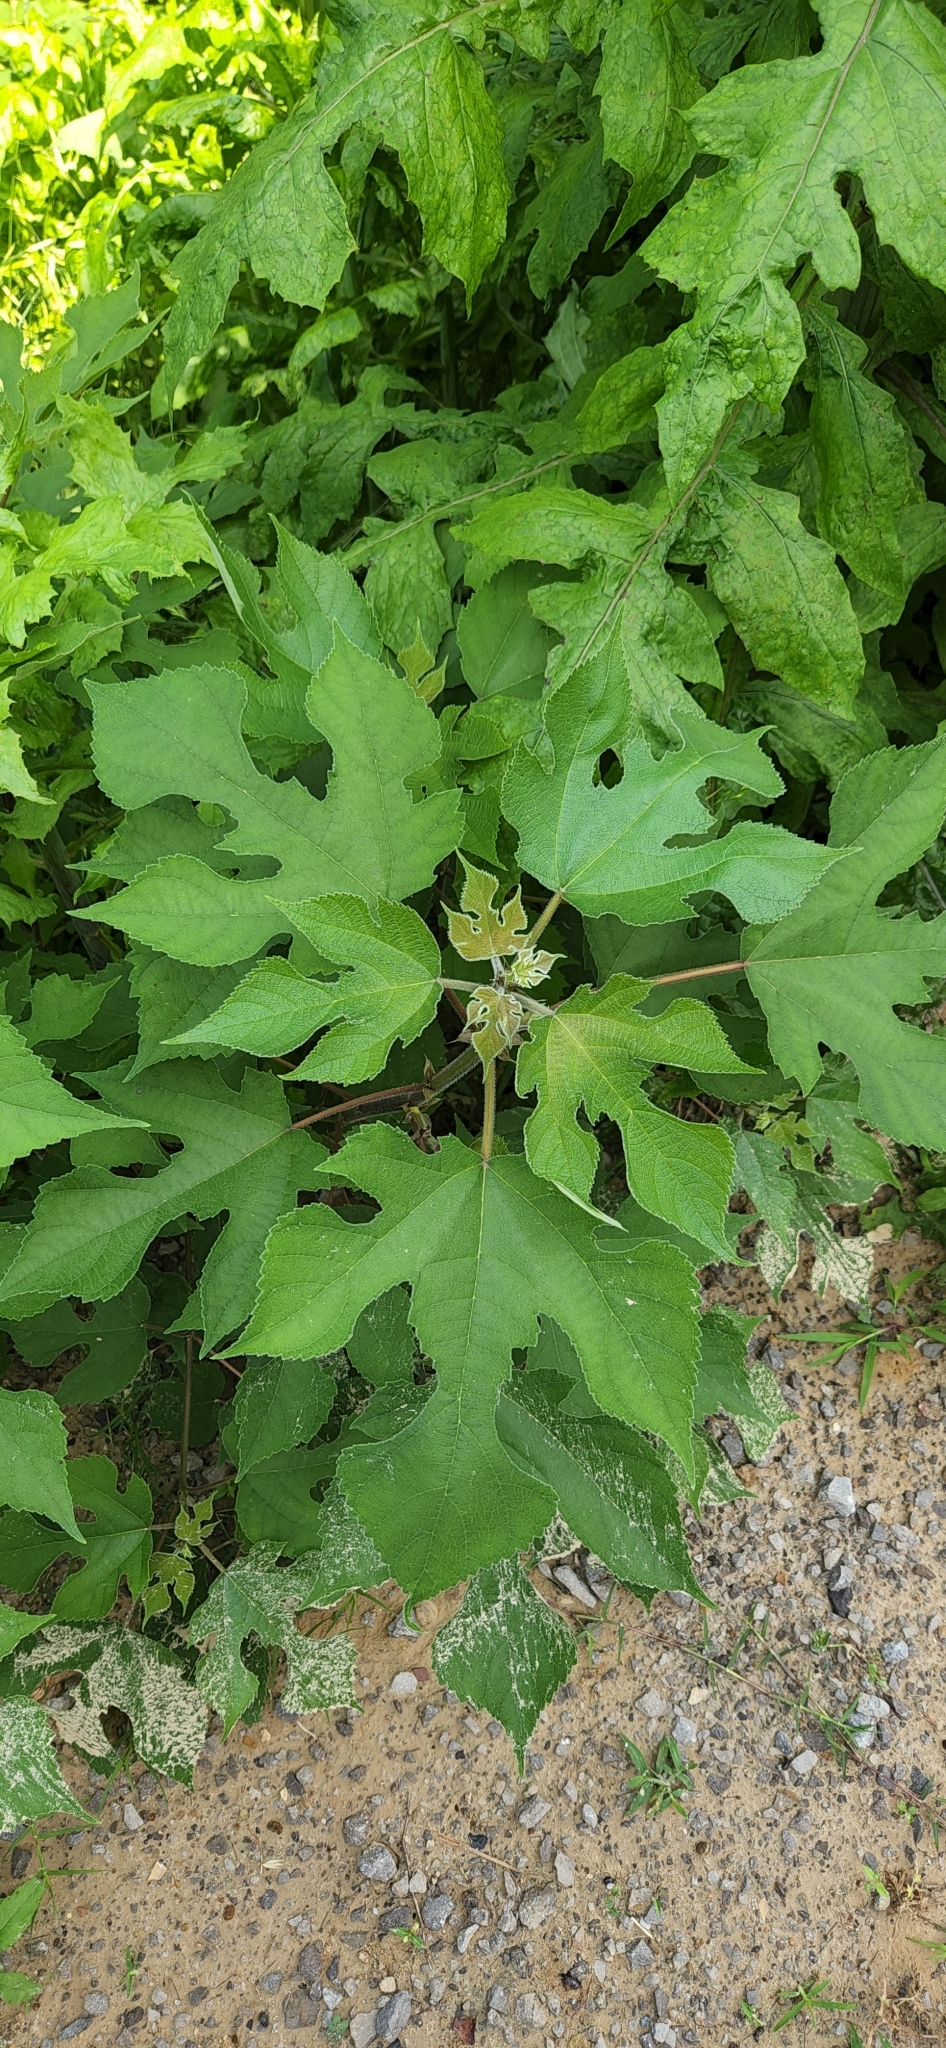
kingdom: Plantae
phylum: Tracheophyta
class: Magnoliopsida
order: Rosales
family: Moraceae
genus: Broussonetia
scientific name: Broussonetia papyrifera
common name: Paper mulberry
